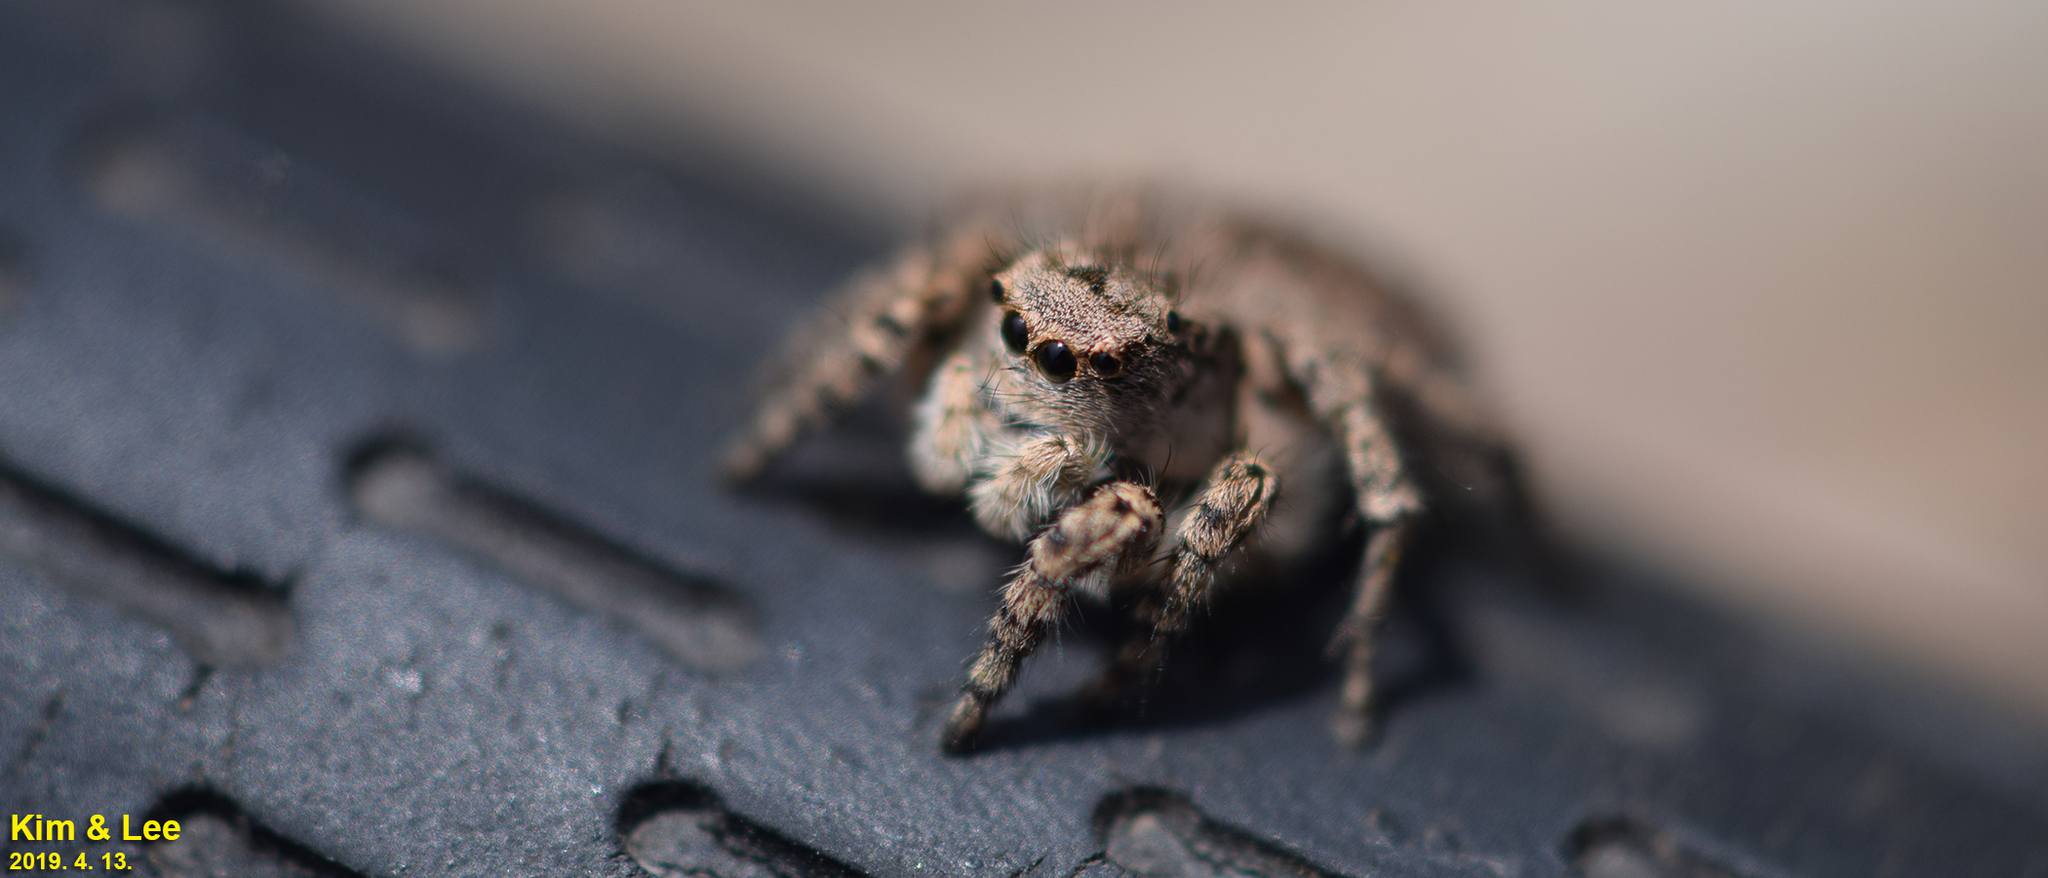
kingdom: Animalia
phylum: Arthropoda
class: Arachnida
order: Araneae
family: Salticidae
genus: Asianellus
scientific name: Asianellus festivus
